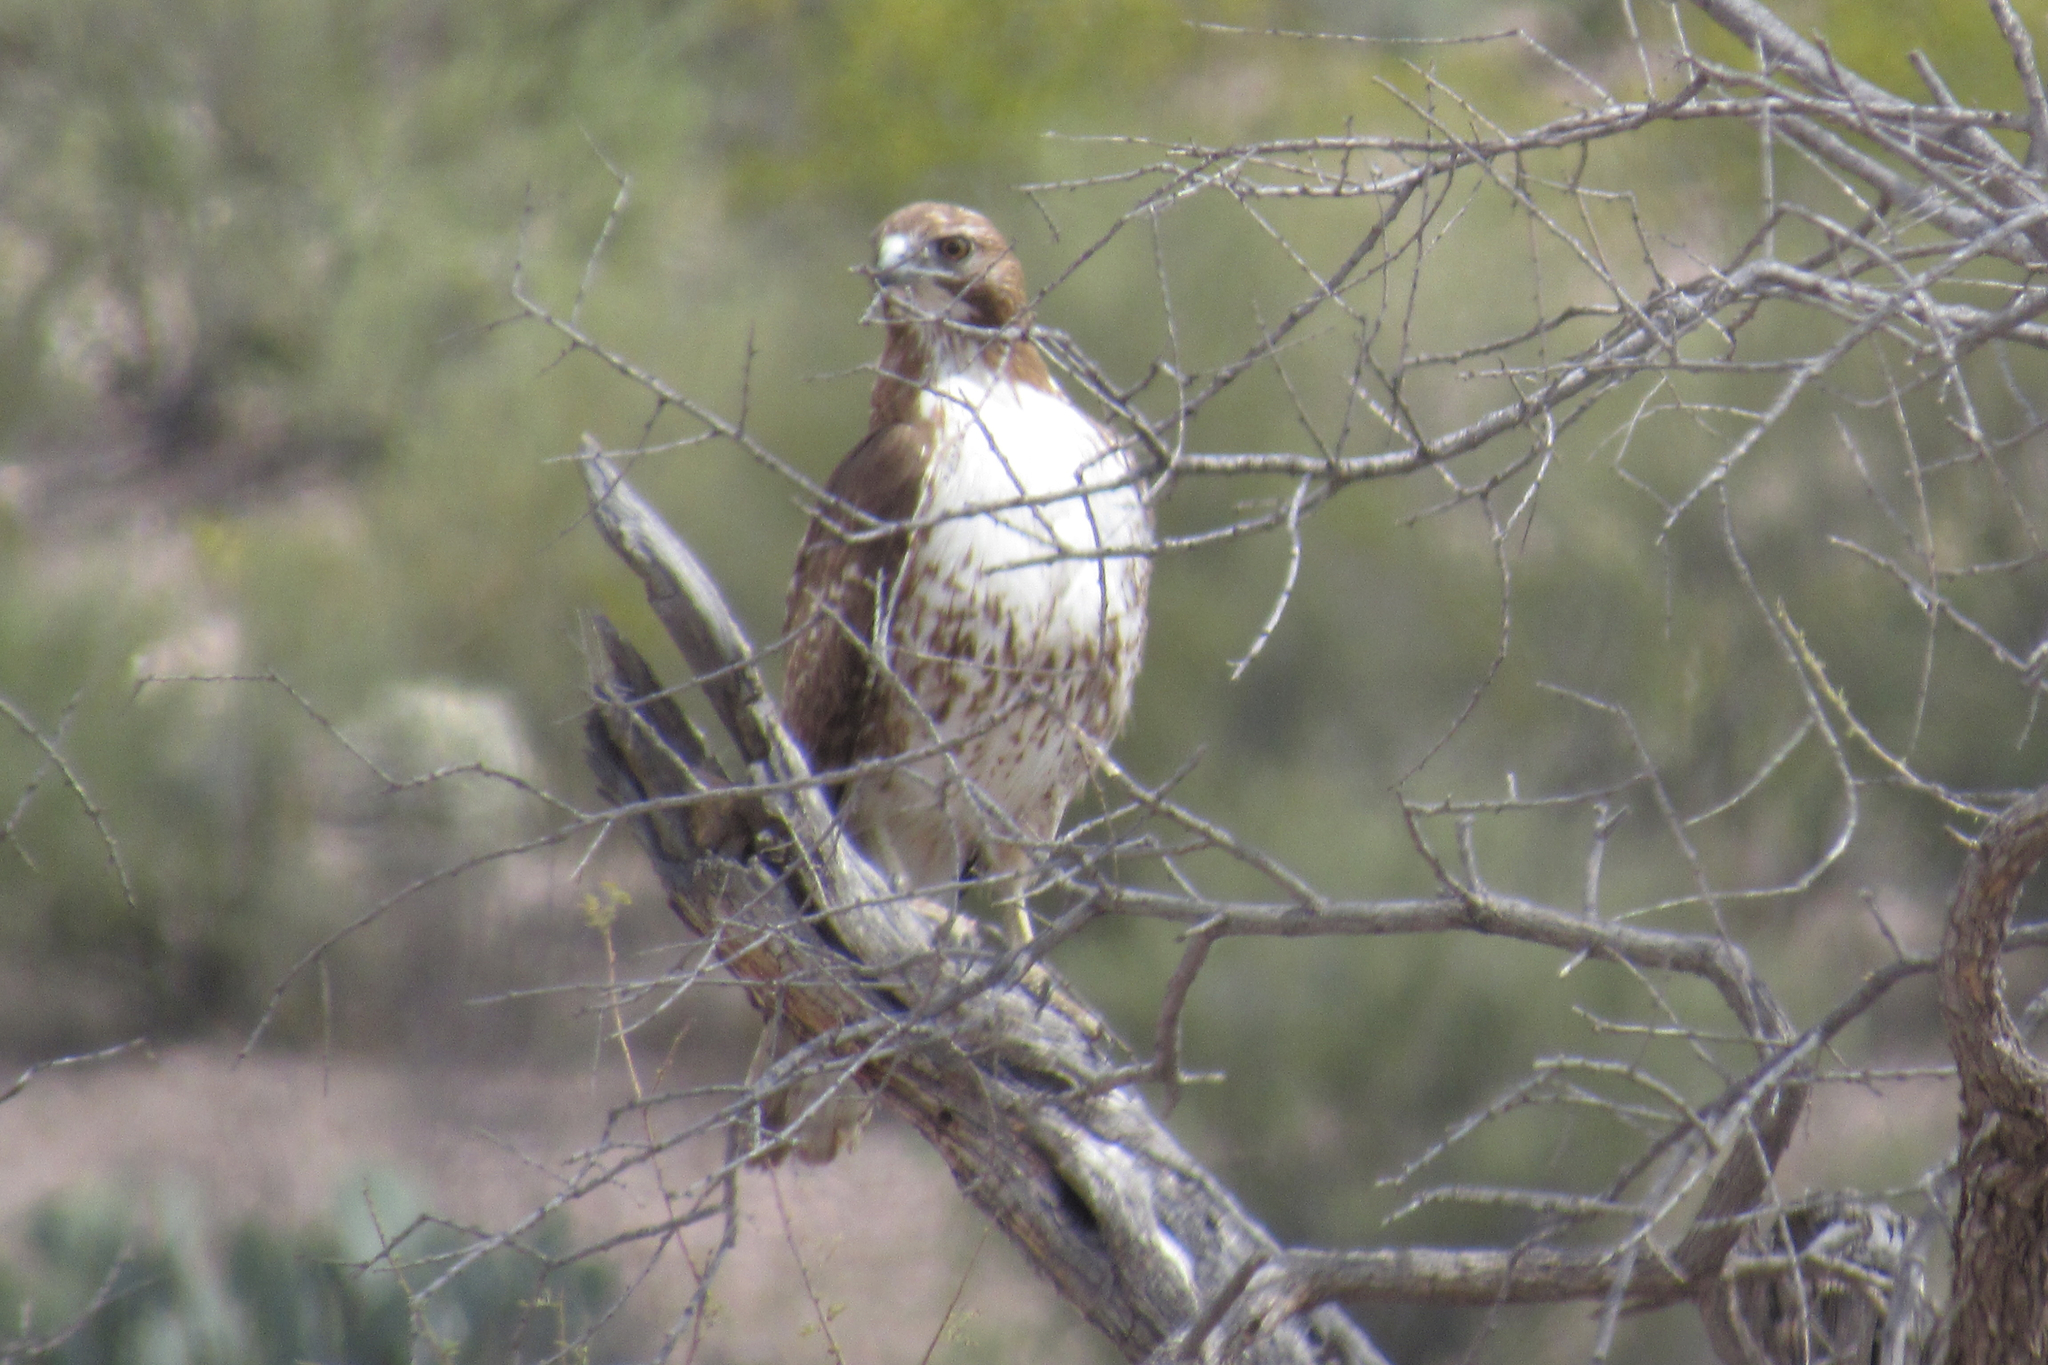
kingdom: Animalia
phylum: Chordata
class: Aves
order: Accipitriformes
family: Accipitridae
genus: Buteo
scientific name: Buteo jamaicensis
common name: Red-tailed hawk
